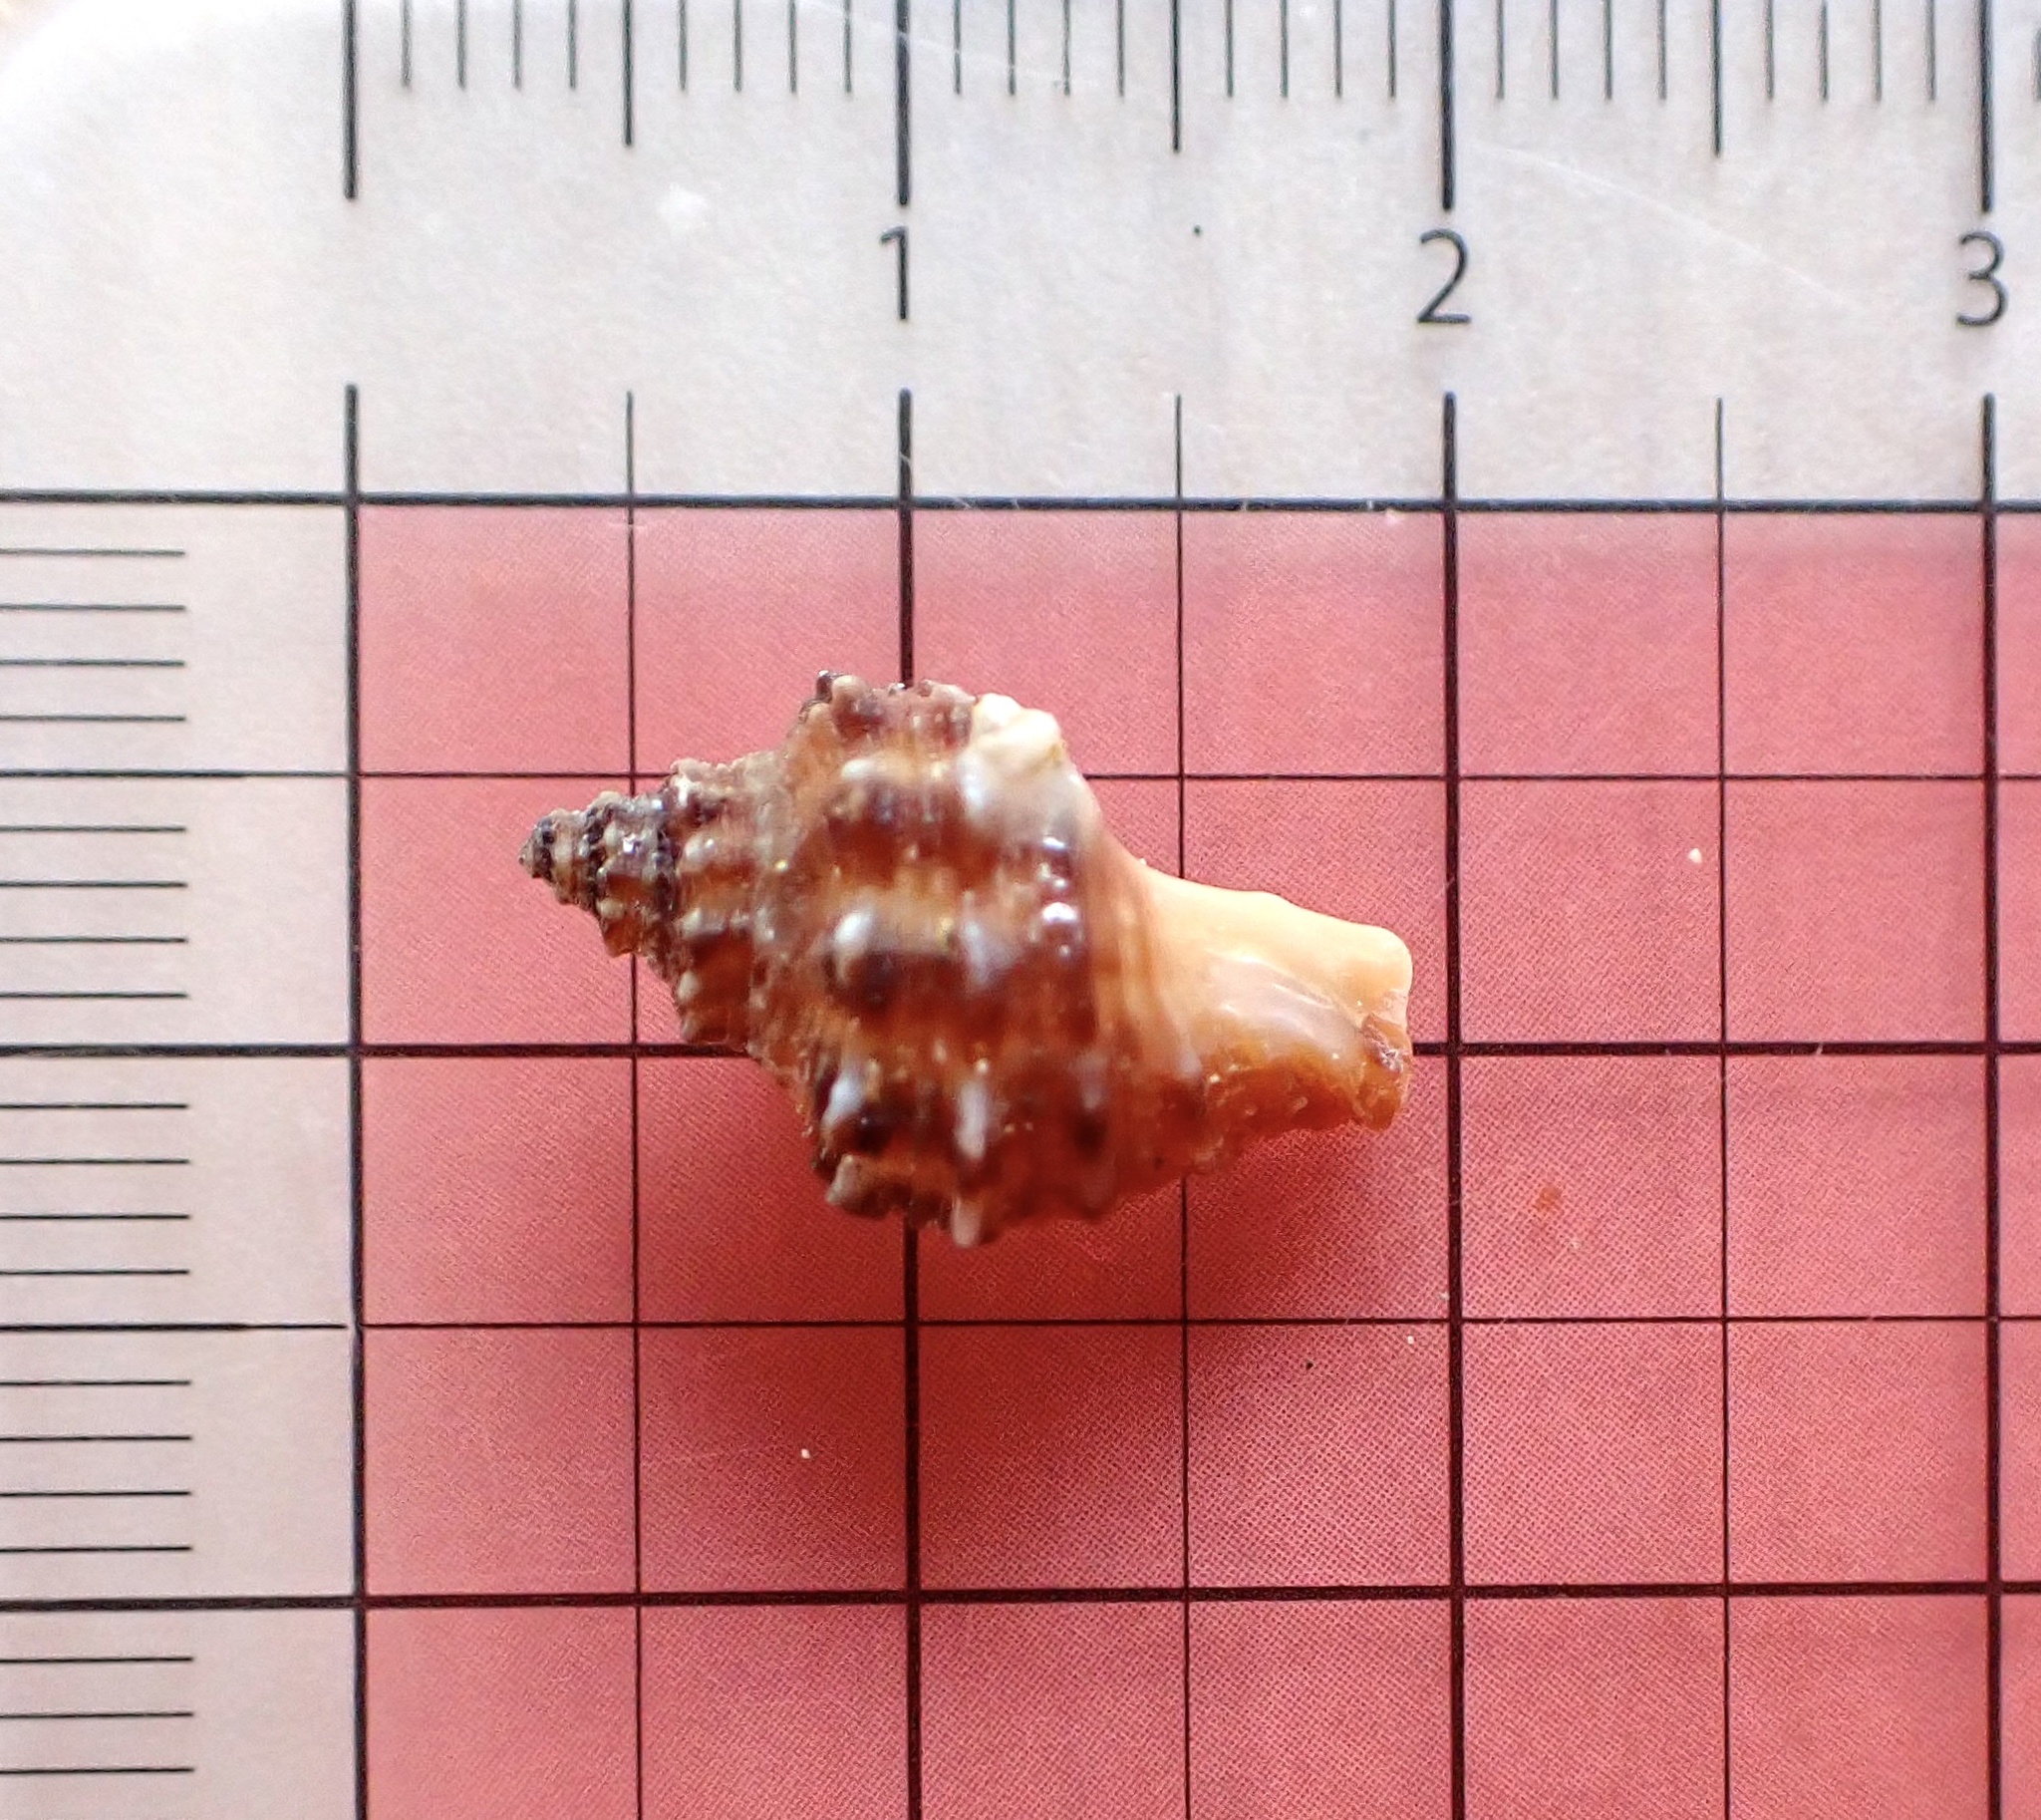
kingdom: Animalia
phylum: Mollusca
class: Gastropoda
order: Neogastropoda
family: Muricidae
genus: Semiricinula
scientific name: Semiricinula turbinoides
